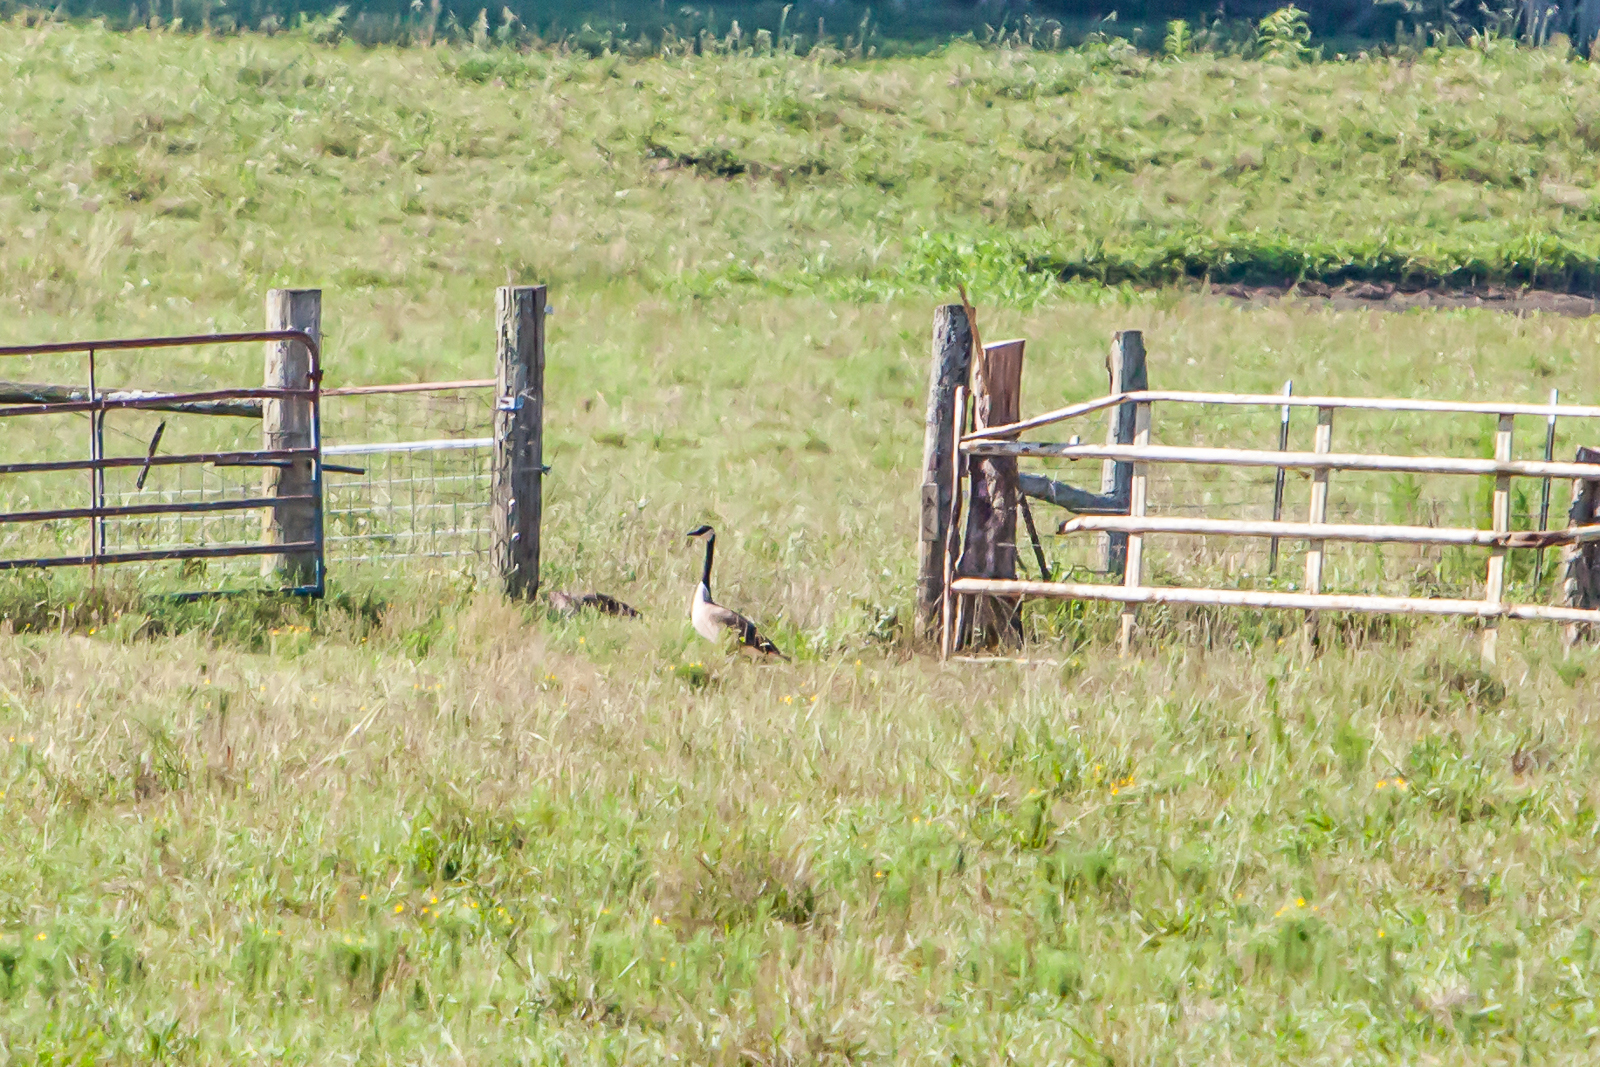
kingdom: Animalia
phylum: Chordata
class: Aves
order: Anseriformes
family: Anatidae
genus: Branta
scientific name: Branta canadensis
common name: Canada goose
